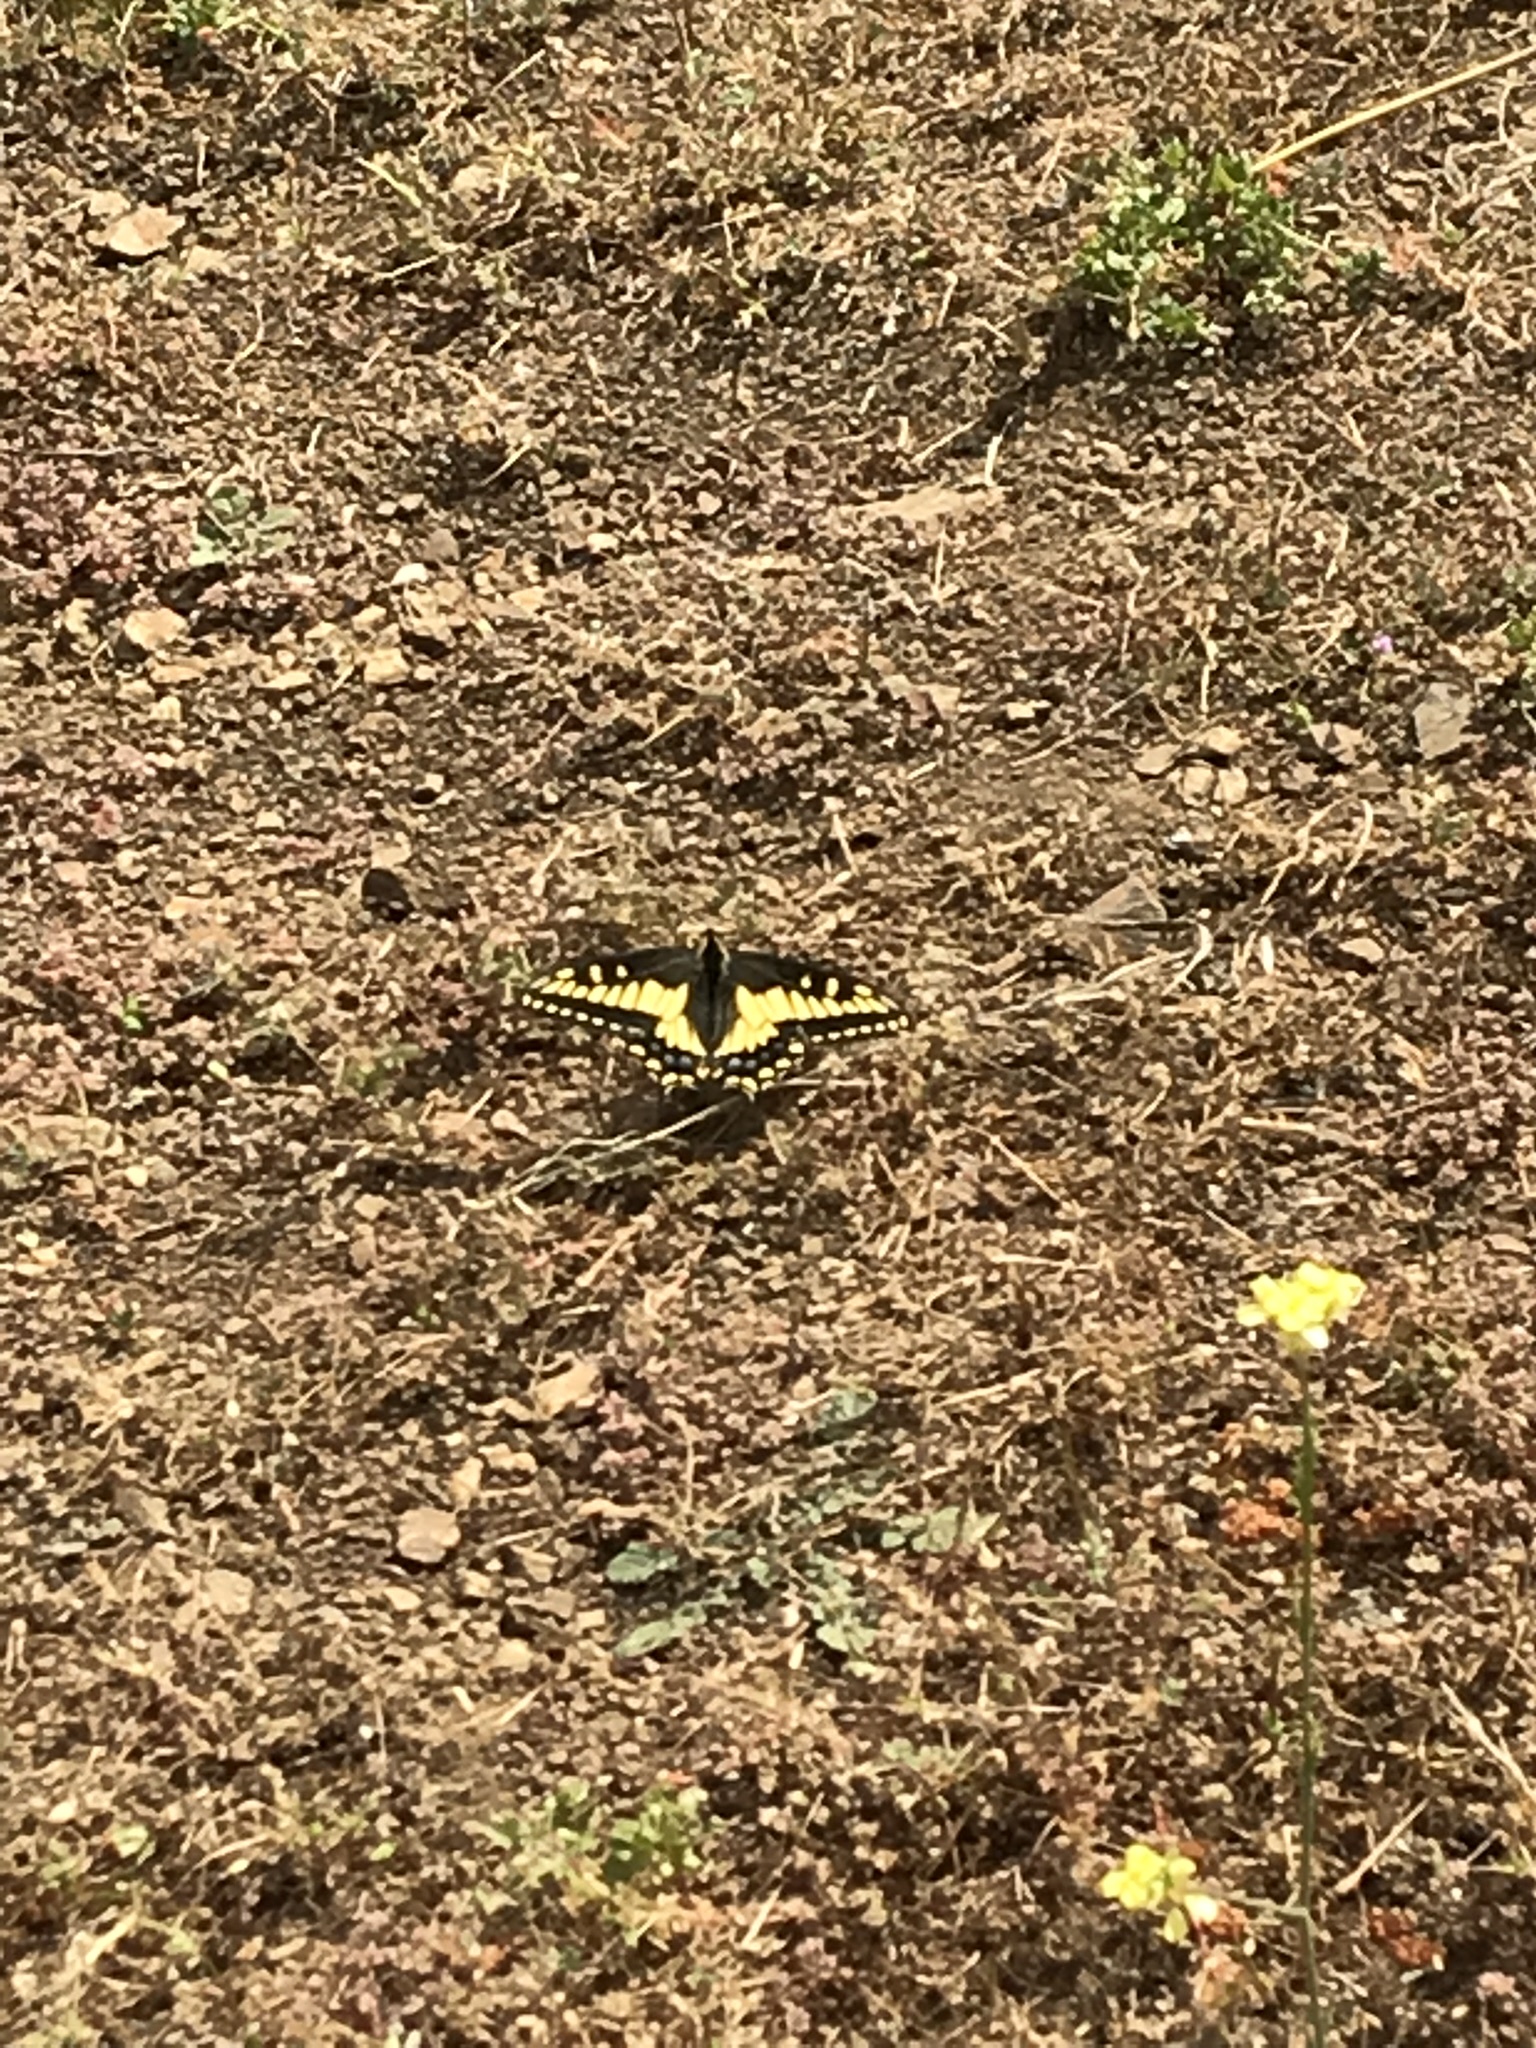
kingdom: Animalia
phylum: Arthropoda
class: Insecta
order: Lepidoptera
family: Papilionidae
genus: Papilio
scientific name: Papilio zelicaon
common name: Anise swallowtail
